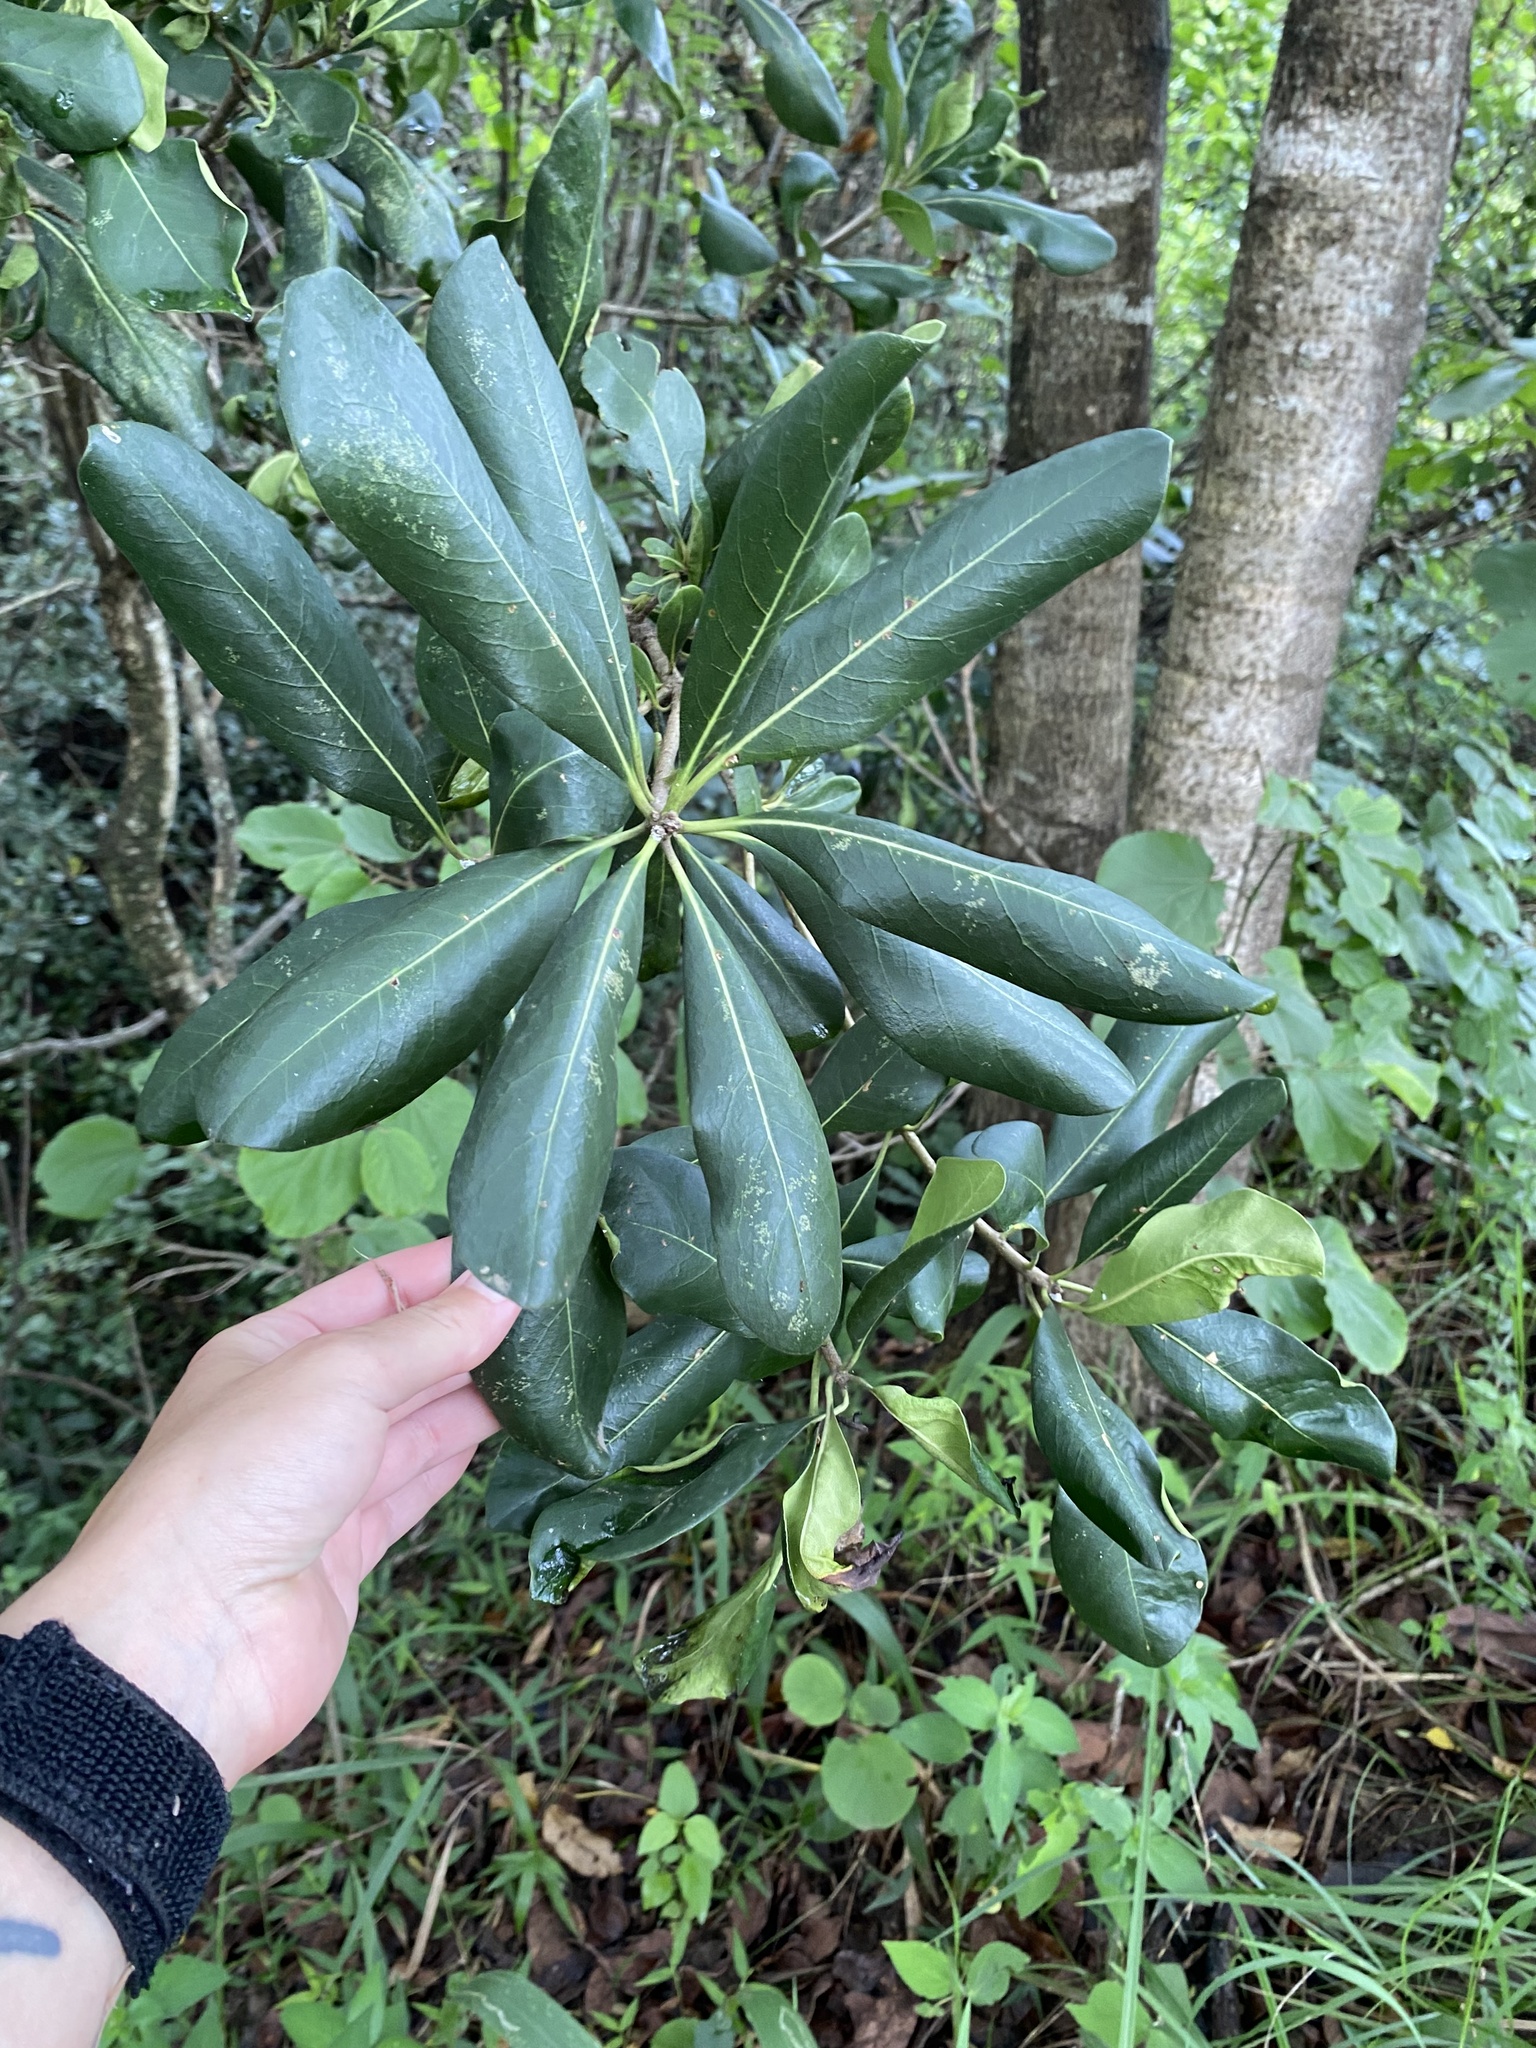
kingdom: Plantae
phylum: Tracheophyta
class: Magnoliopsida
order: Apiales
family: Pittosporaceae
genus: Pittosporum
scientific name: Pittosporum viridiflorum
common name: Cape cheesewood
